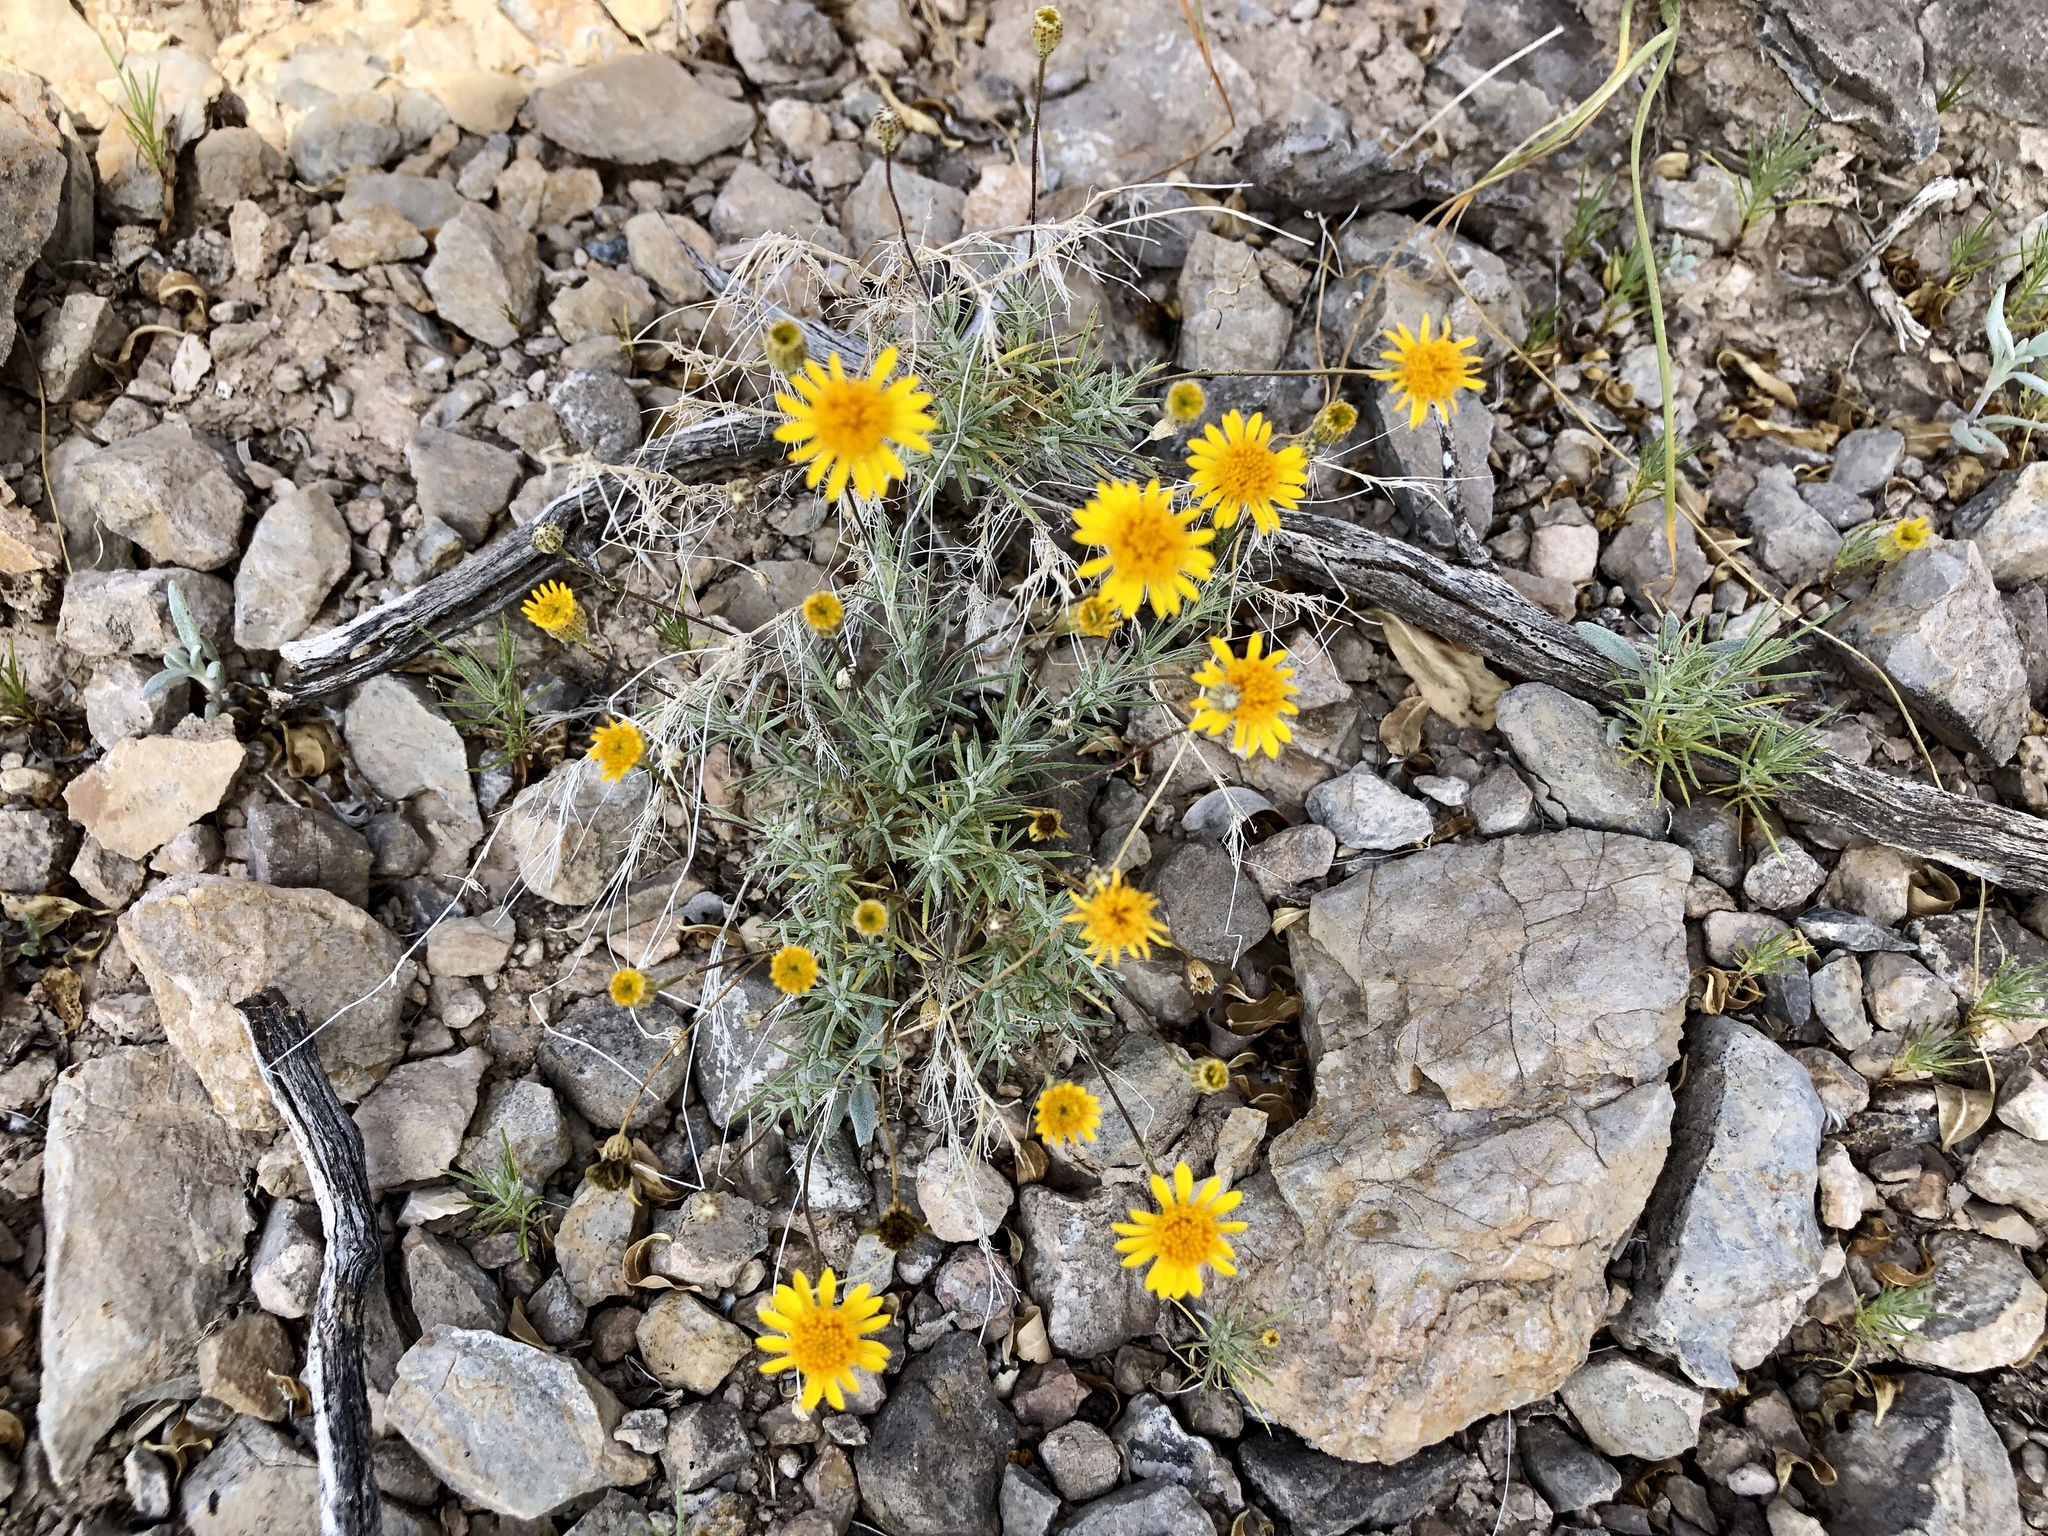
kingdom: Plantae
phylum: Tracheophyta
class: Magnoliopsida
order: Asterales
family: Asteraceae
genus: Thymophylla
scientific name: Thymophylla pentachaeta
